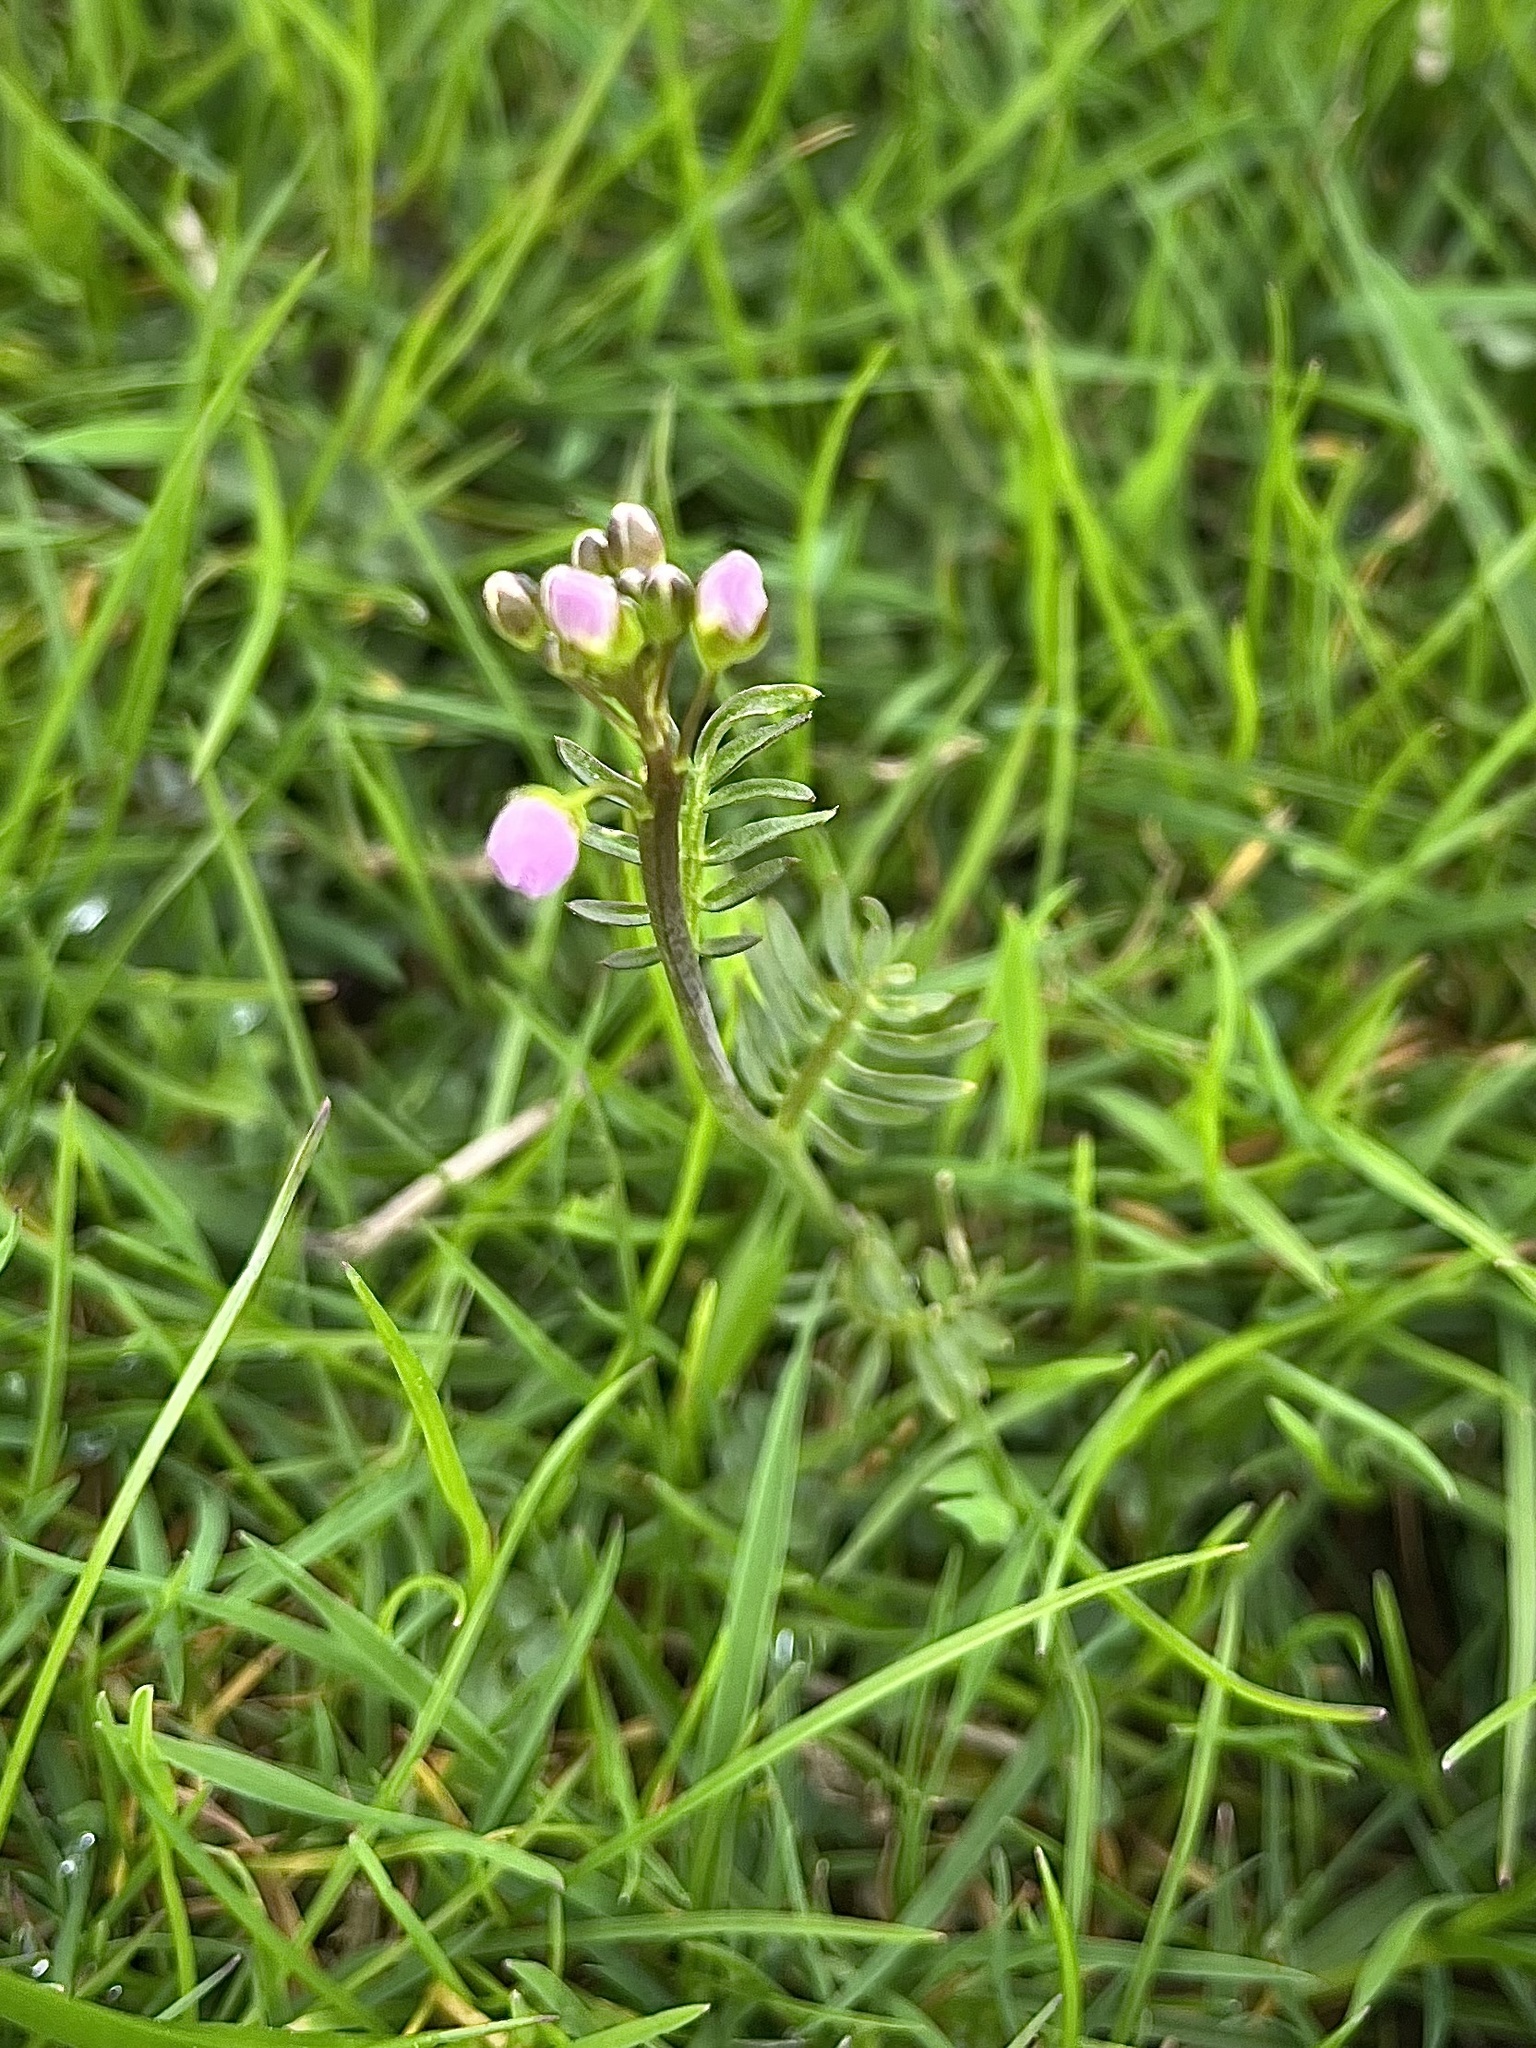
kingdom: Plantae
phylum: Tracheophyta
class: Magnoliopsida
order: Brassicales
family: Brassicaceae
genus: Cardamine
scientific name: Cardamine pratensis
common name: Cuckoo flower
